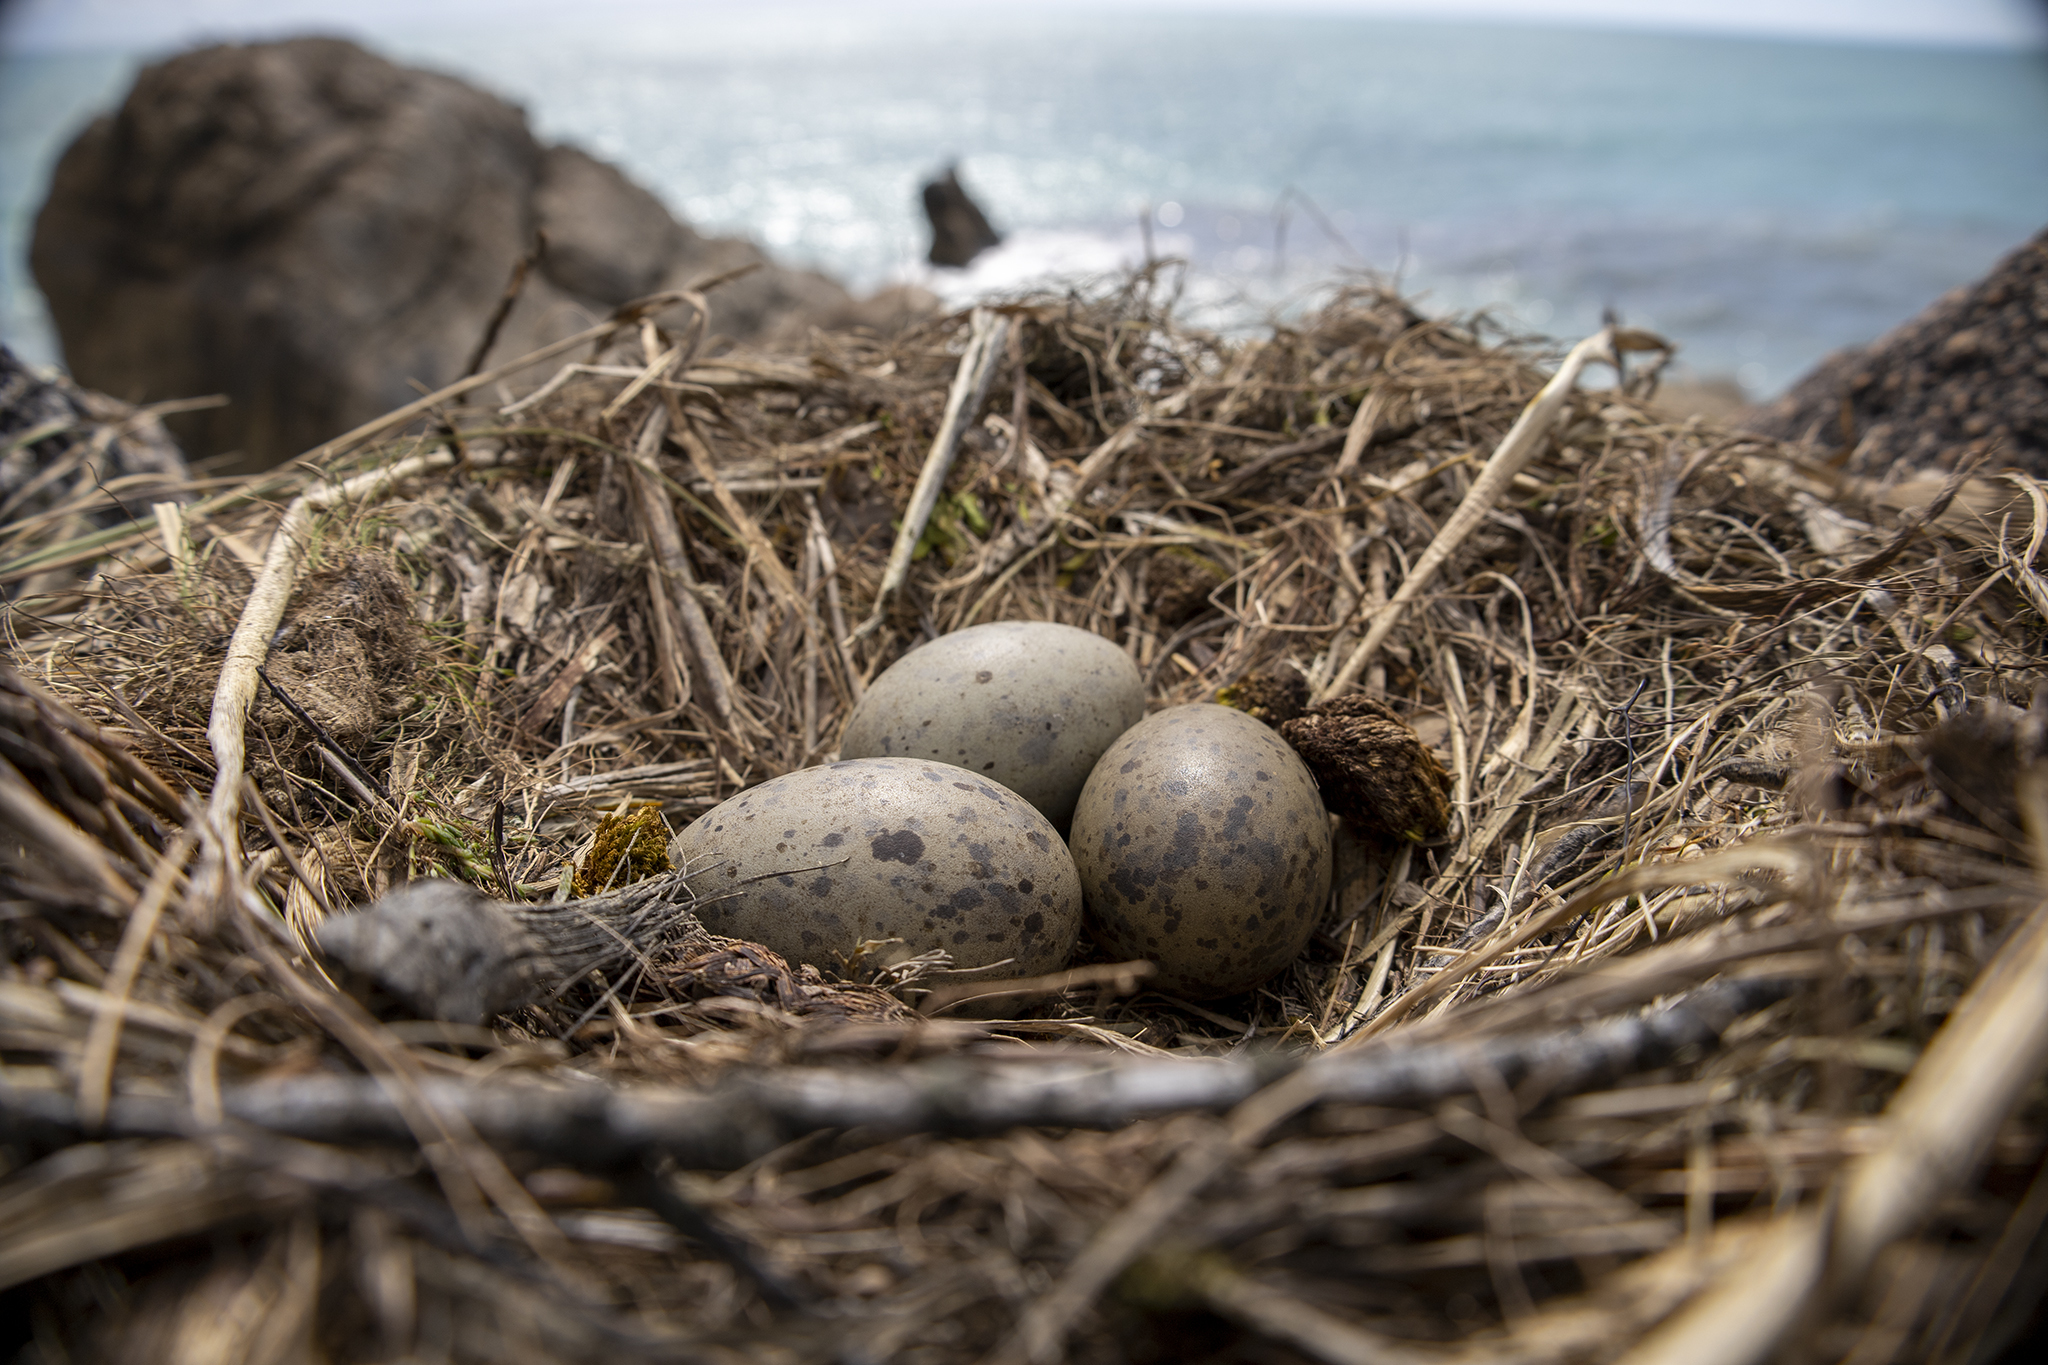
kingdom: Animalia
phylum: Chordata
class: Aves
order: Charadriiformes
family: Laridae
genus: Larus
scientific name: Larus dominicanus
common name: Kelp gull
